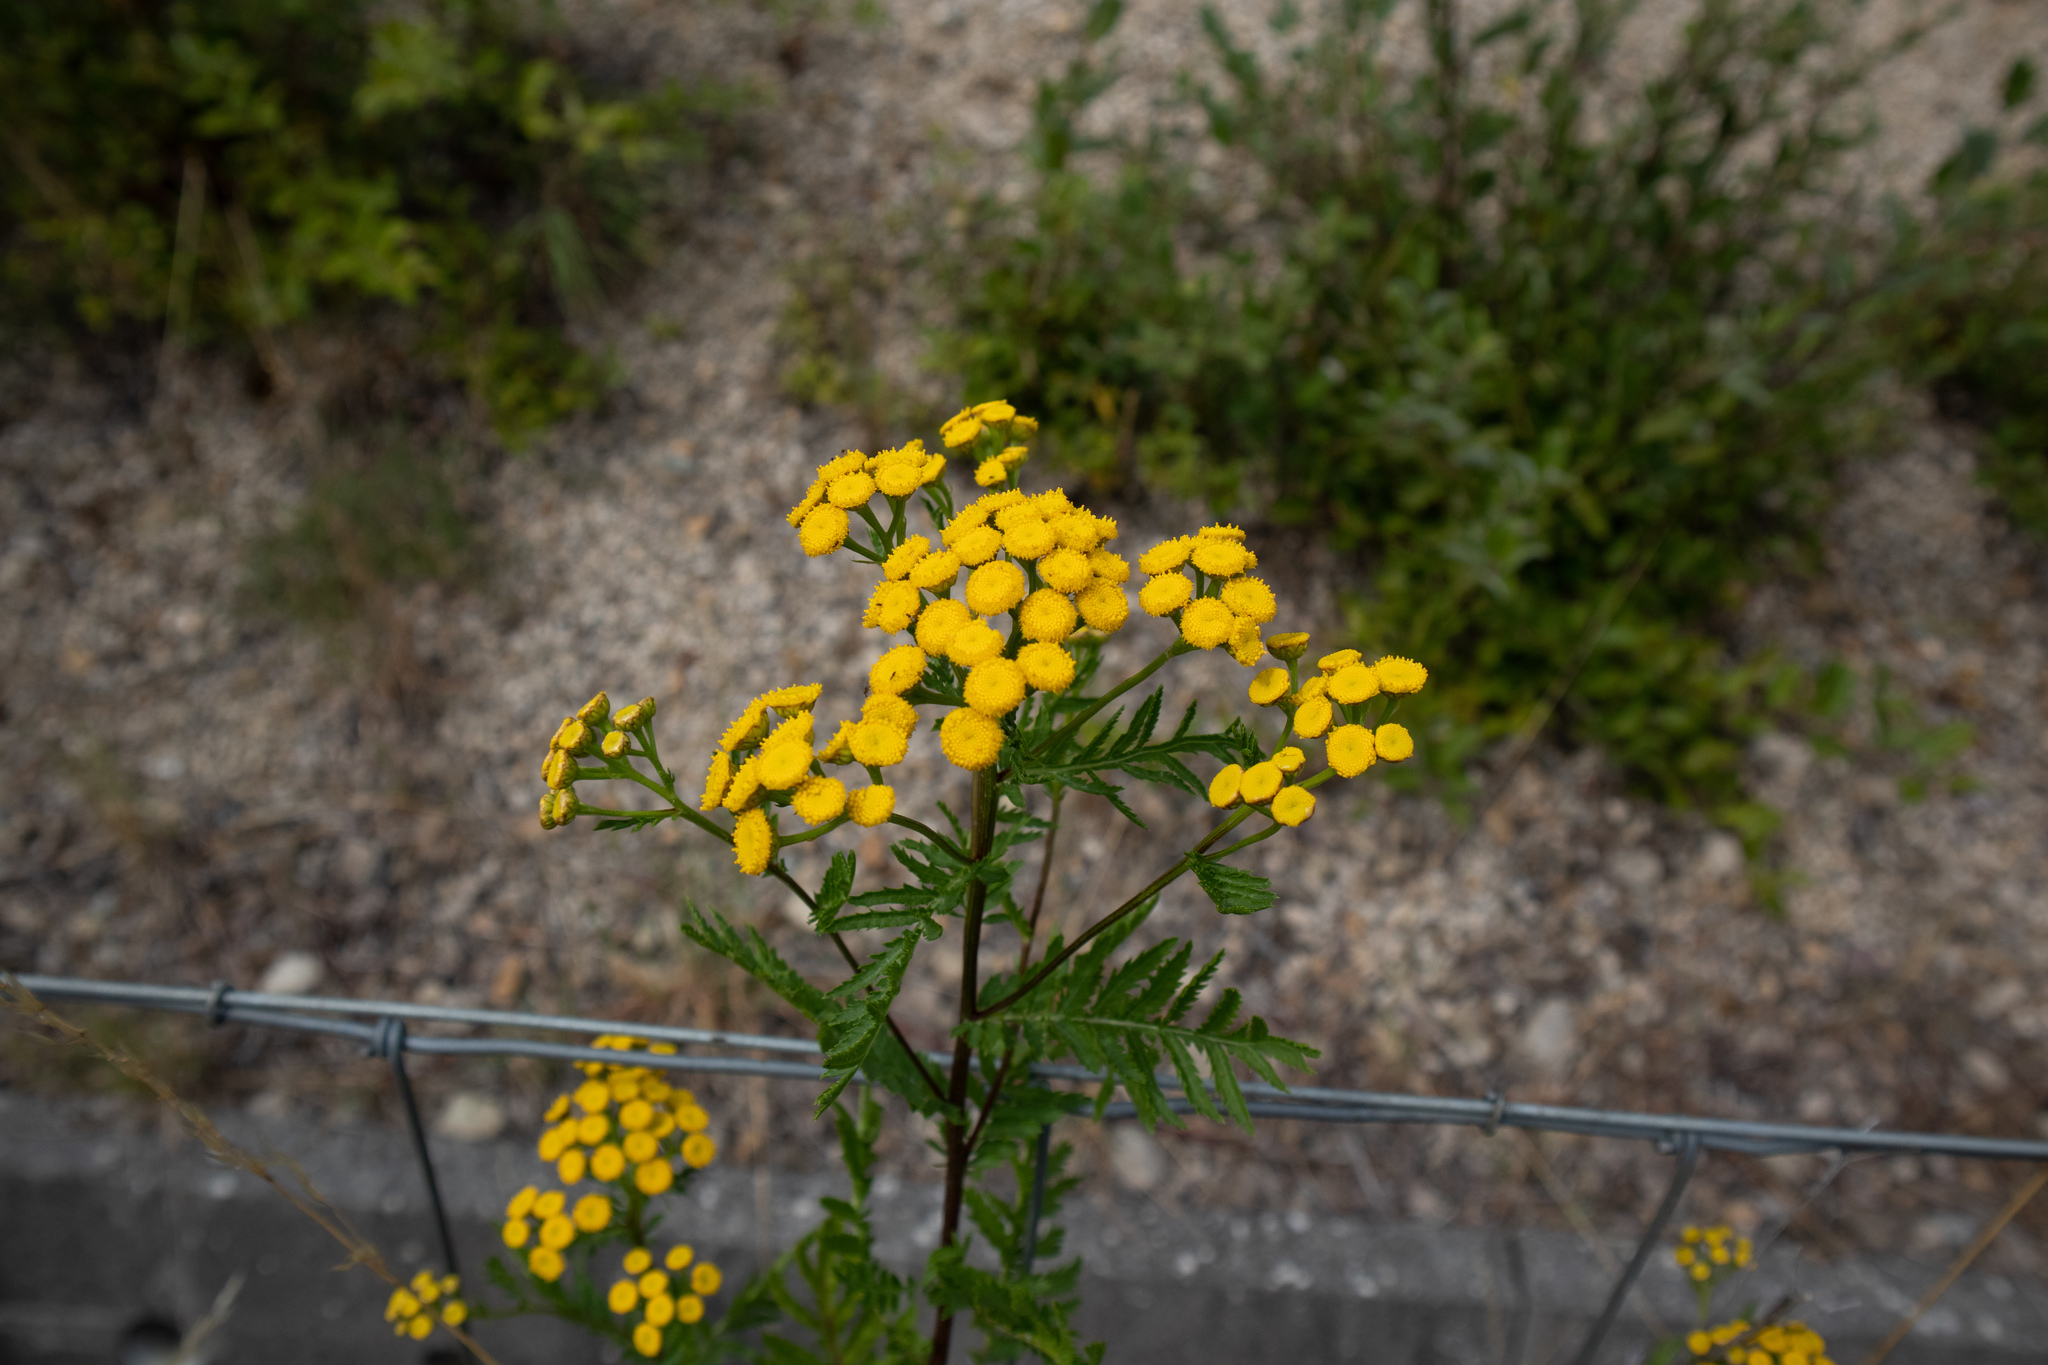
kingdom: Plantae
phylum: Tracheophyta
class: Magnoliopsida
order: Asterales
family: Asteraceae
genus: Tanacetum
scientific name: Tanacetum vulgare
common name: Common tansy
